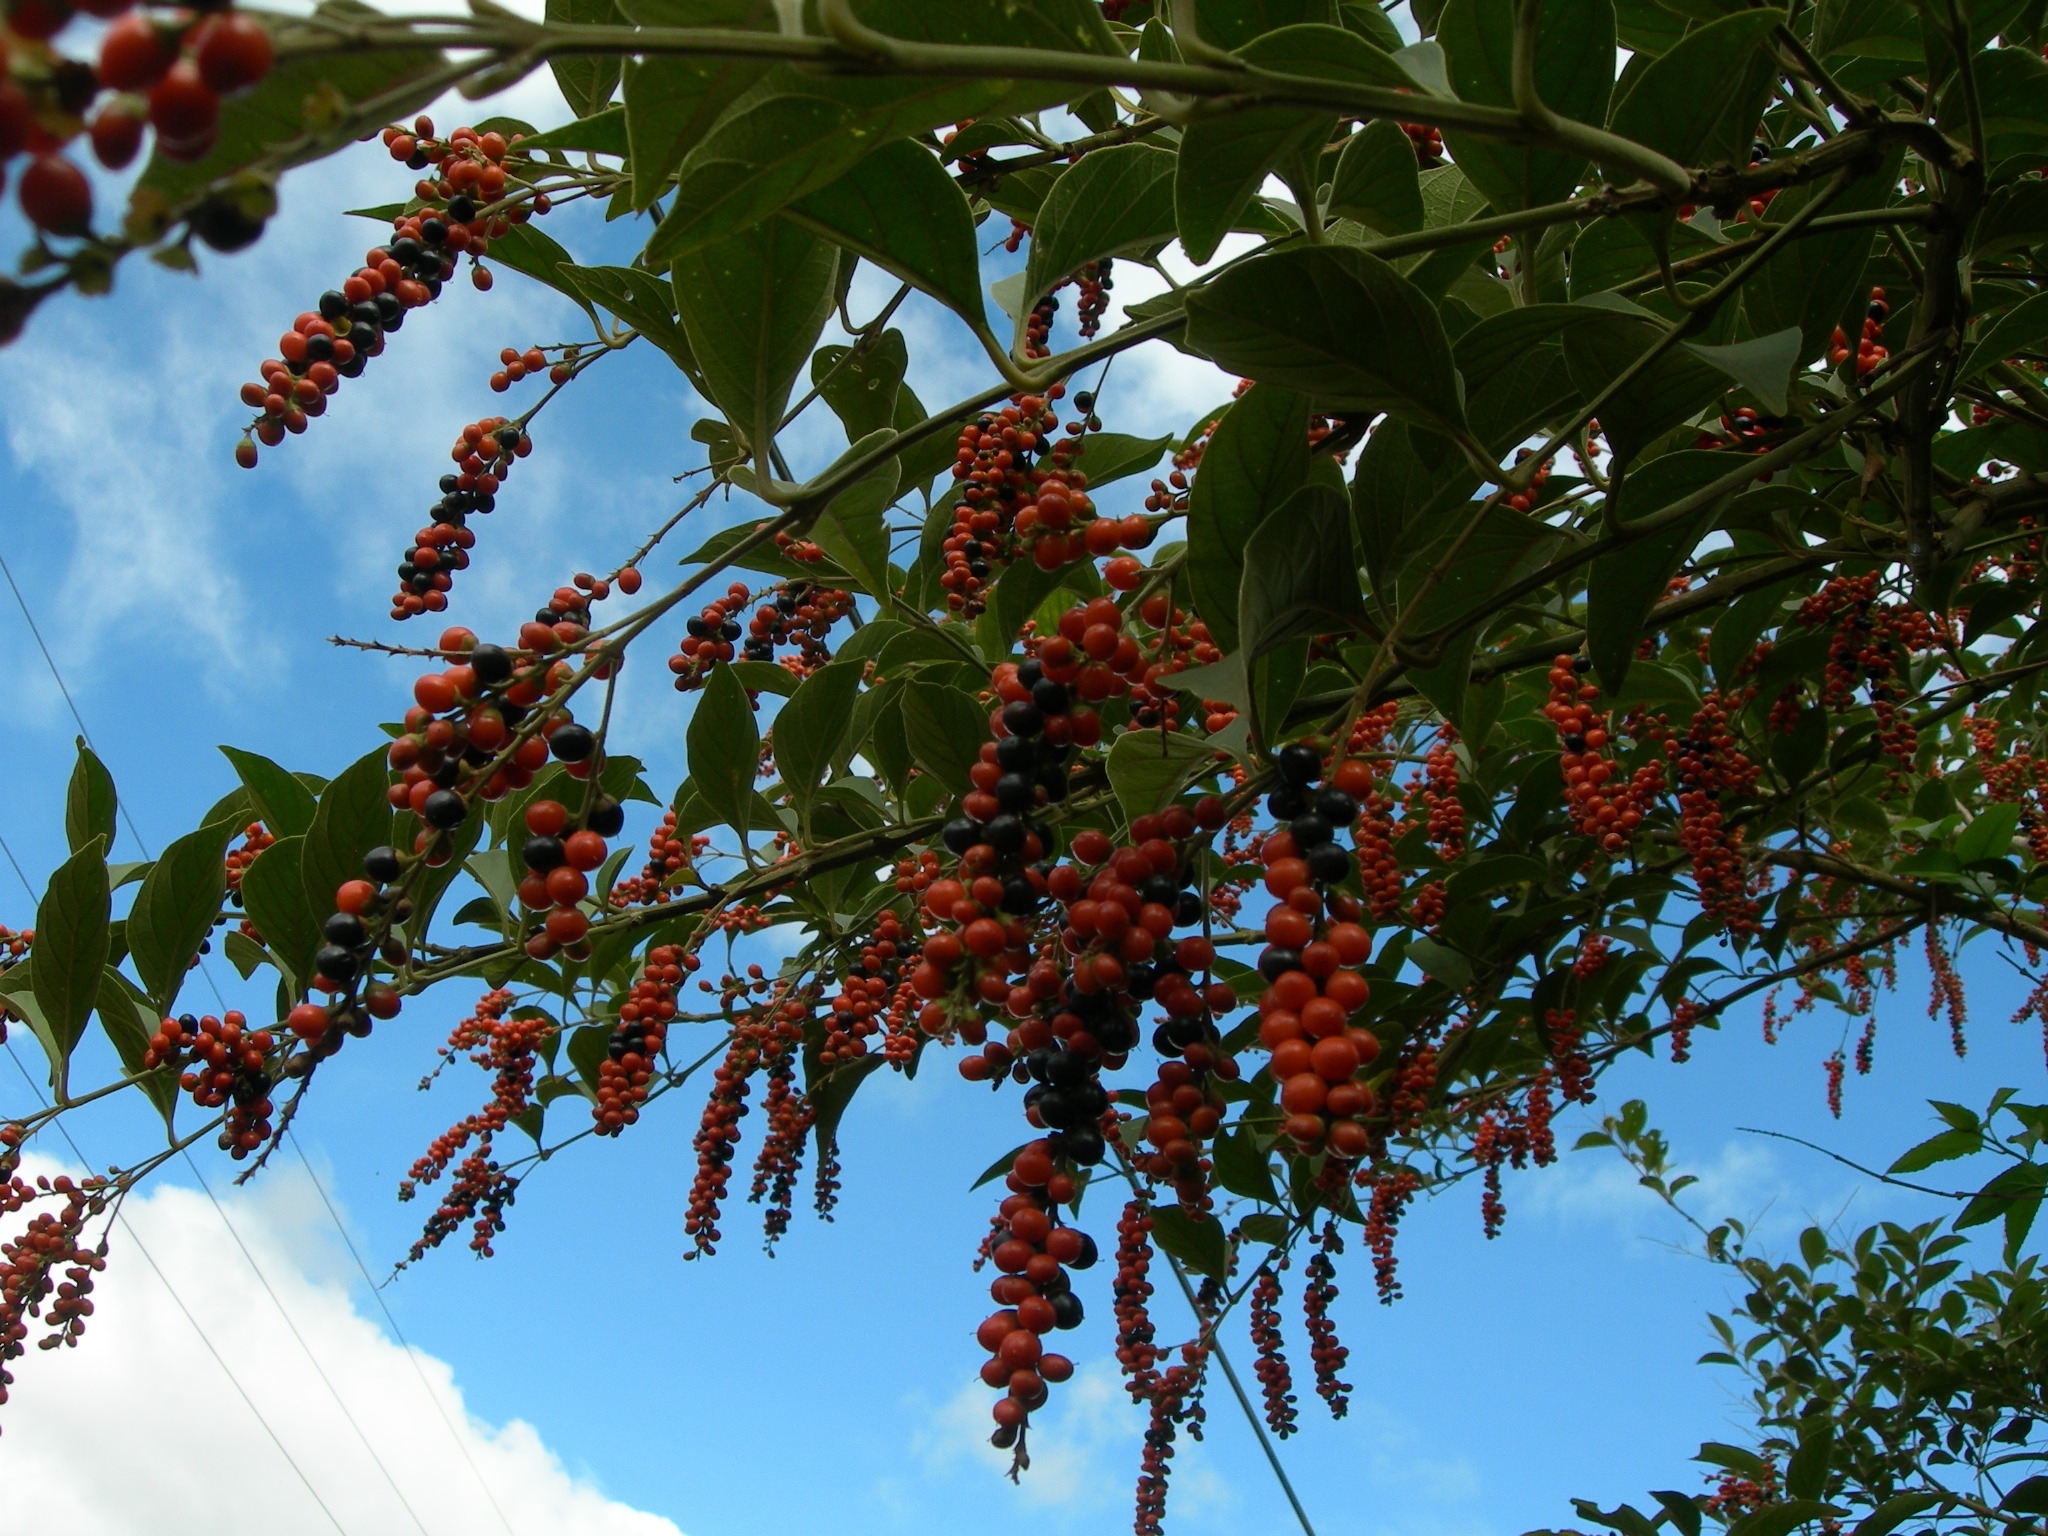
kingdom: Plantae
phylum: Tracheophyta
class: Magnoliopsida
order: Lamiales
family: Verbenaceae
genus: Citharexylum
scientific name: Citharexylum crassifolium
